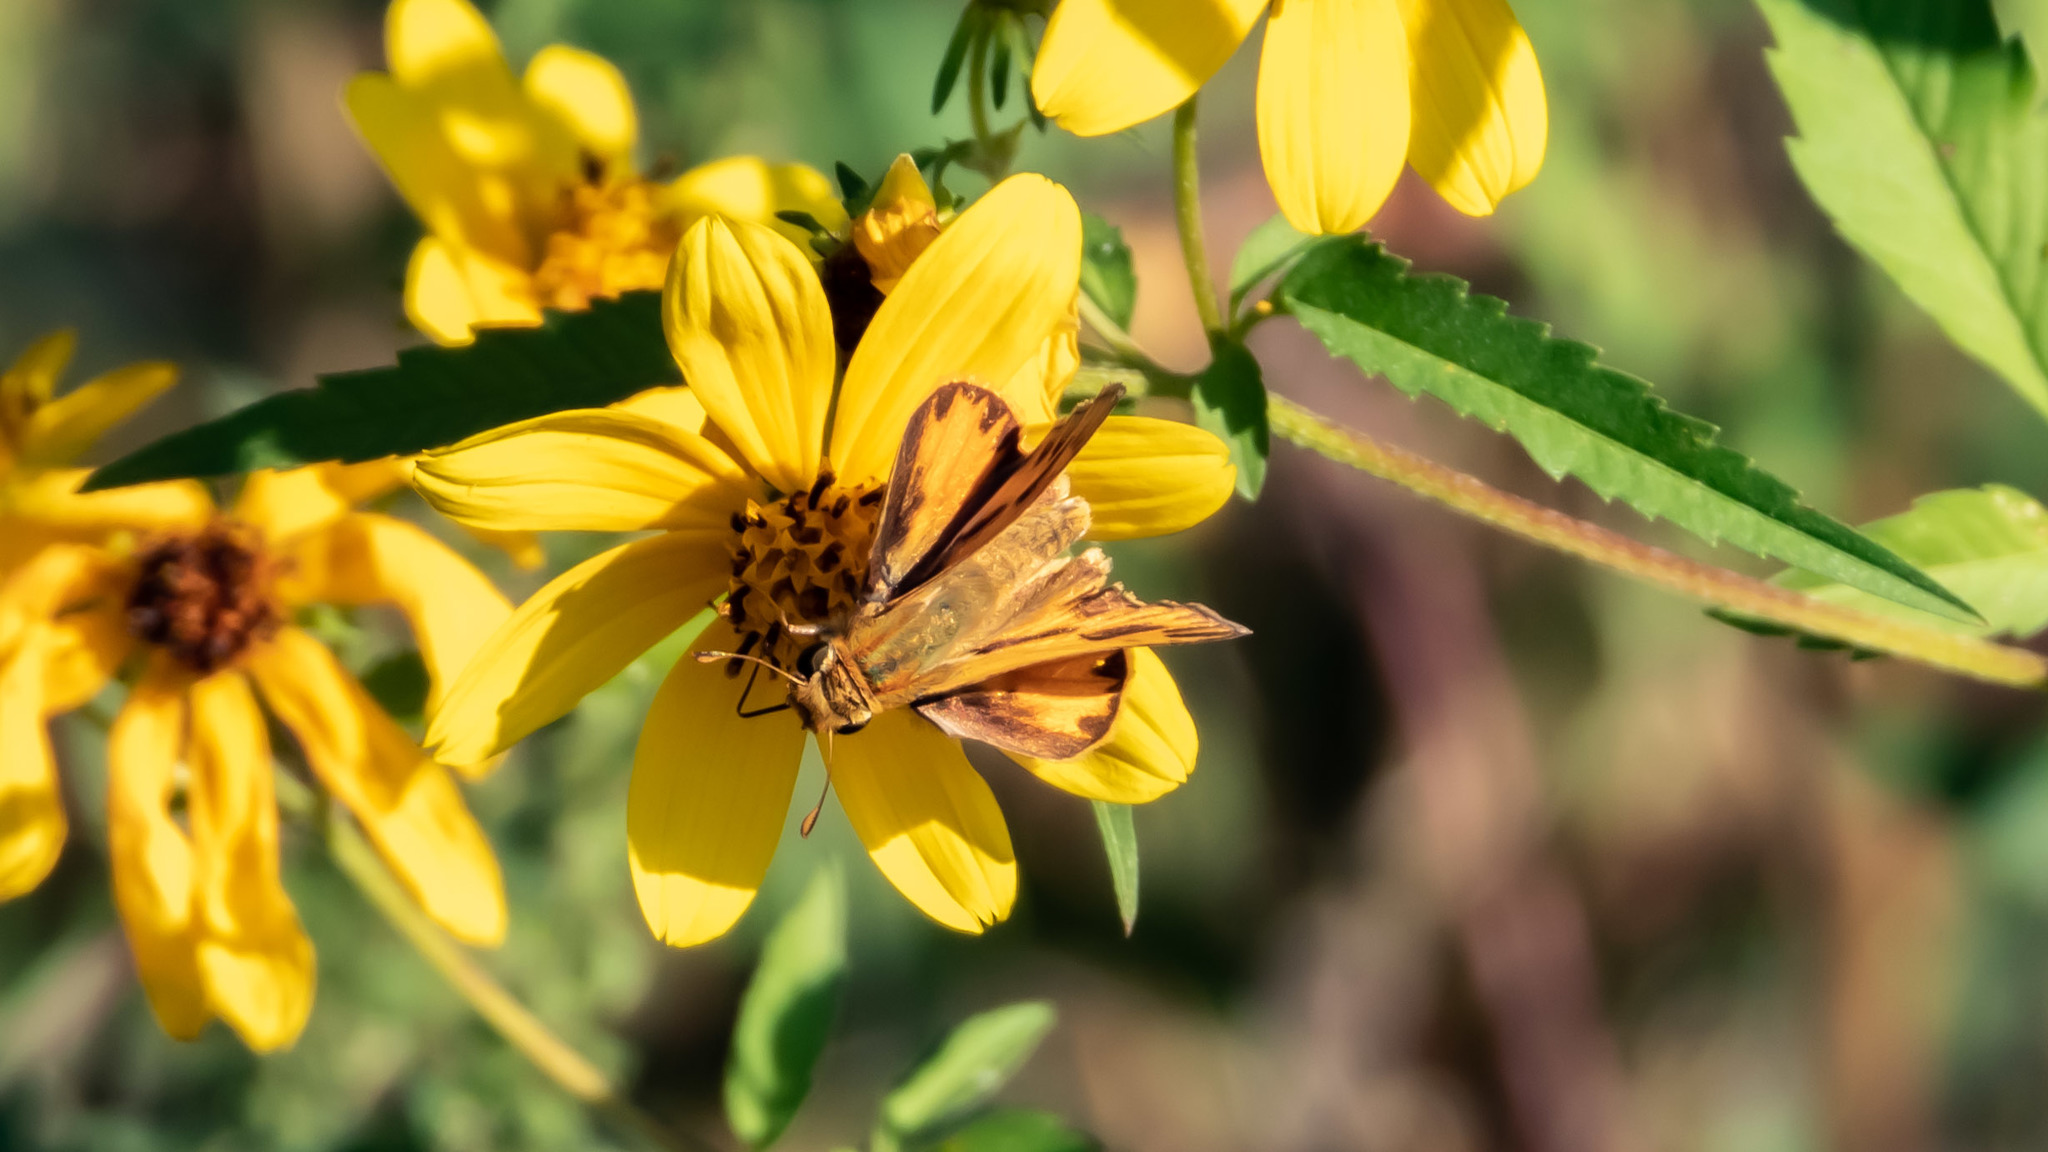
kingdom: Animalia
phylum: Arthropoda
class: Insecta
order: Lepidoptera
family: Hesperiidae
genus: Hylephila
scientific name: Hylephila phyleus
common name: Fiery skipper
